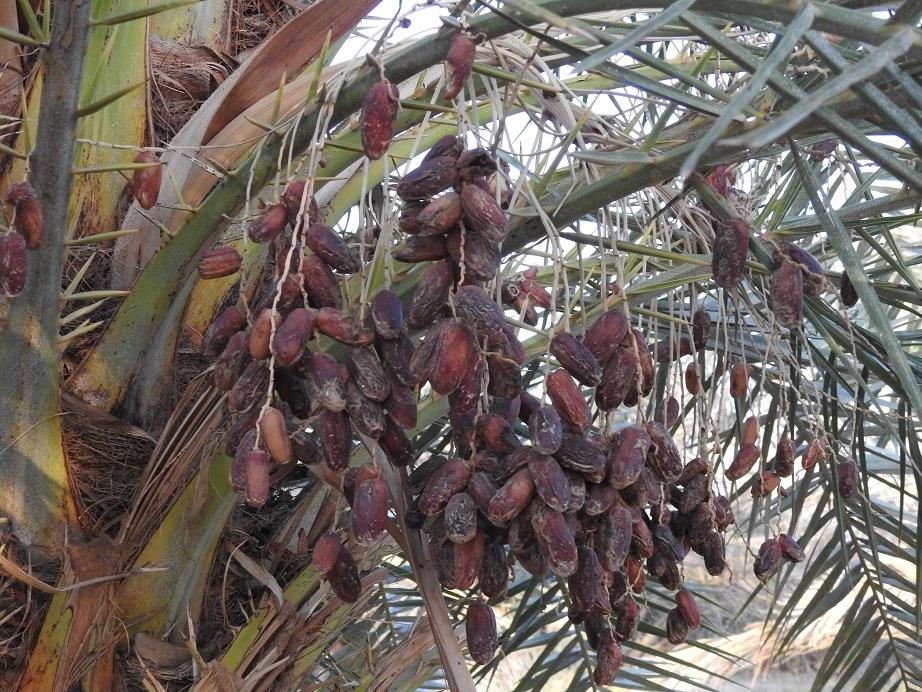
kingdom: Plantae
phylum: Tracheophyta
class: Liliopsida
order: Arecales
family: Arecaceae
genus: Phoenix
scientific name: Phoenix dactylifera
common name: Date palm
